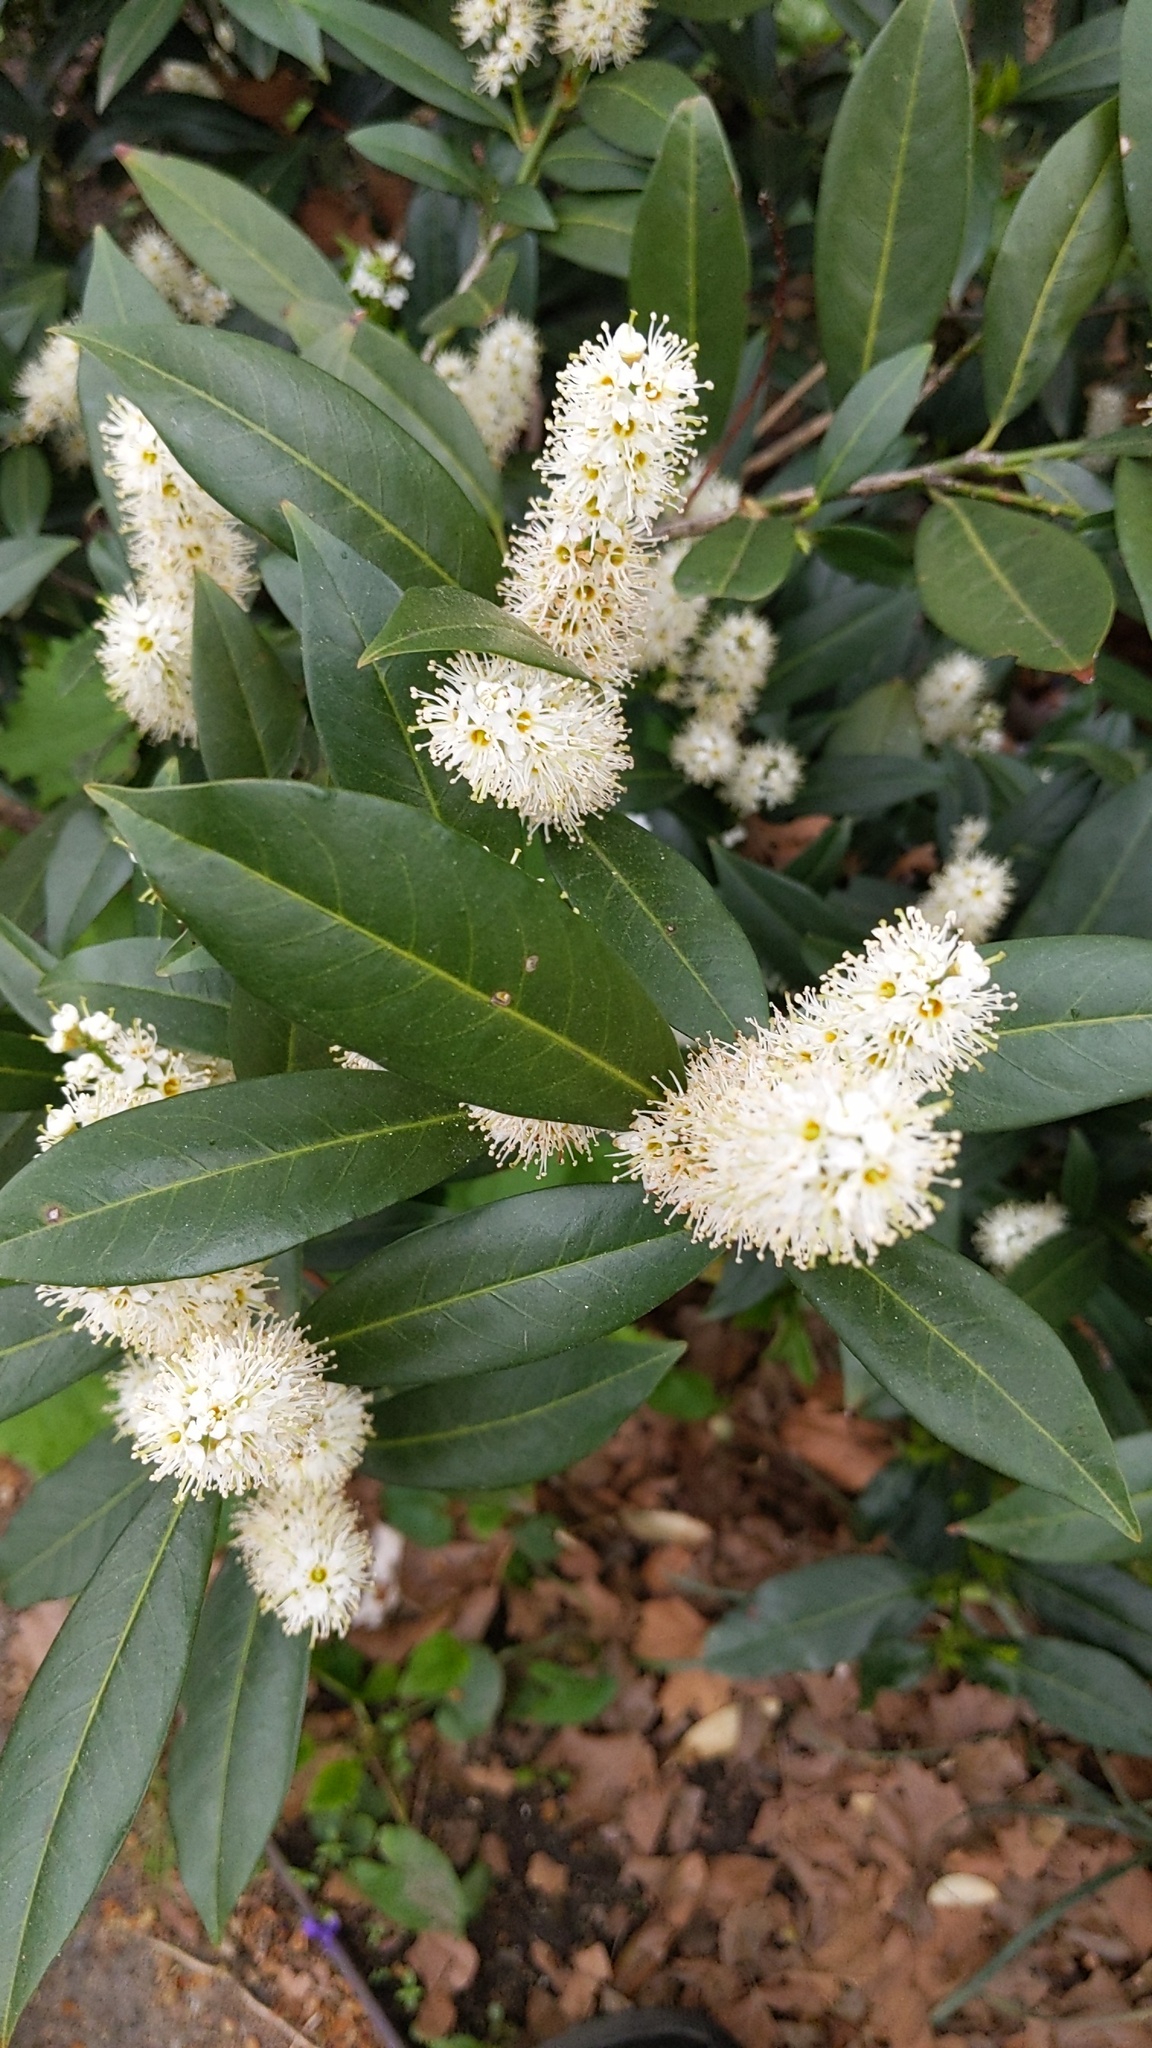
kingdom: Plantae
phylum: Tracheophyta
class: Magnoliopsida
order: Rosales
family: Rosaceae
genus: Prunus
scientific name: Prunus laurocerasus
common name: Cherry laurel
